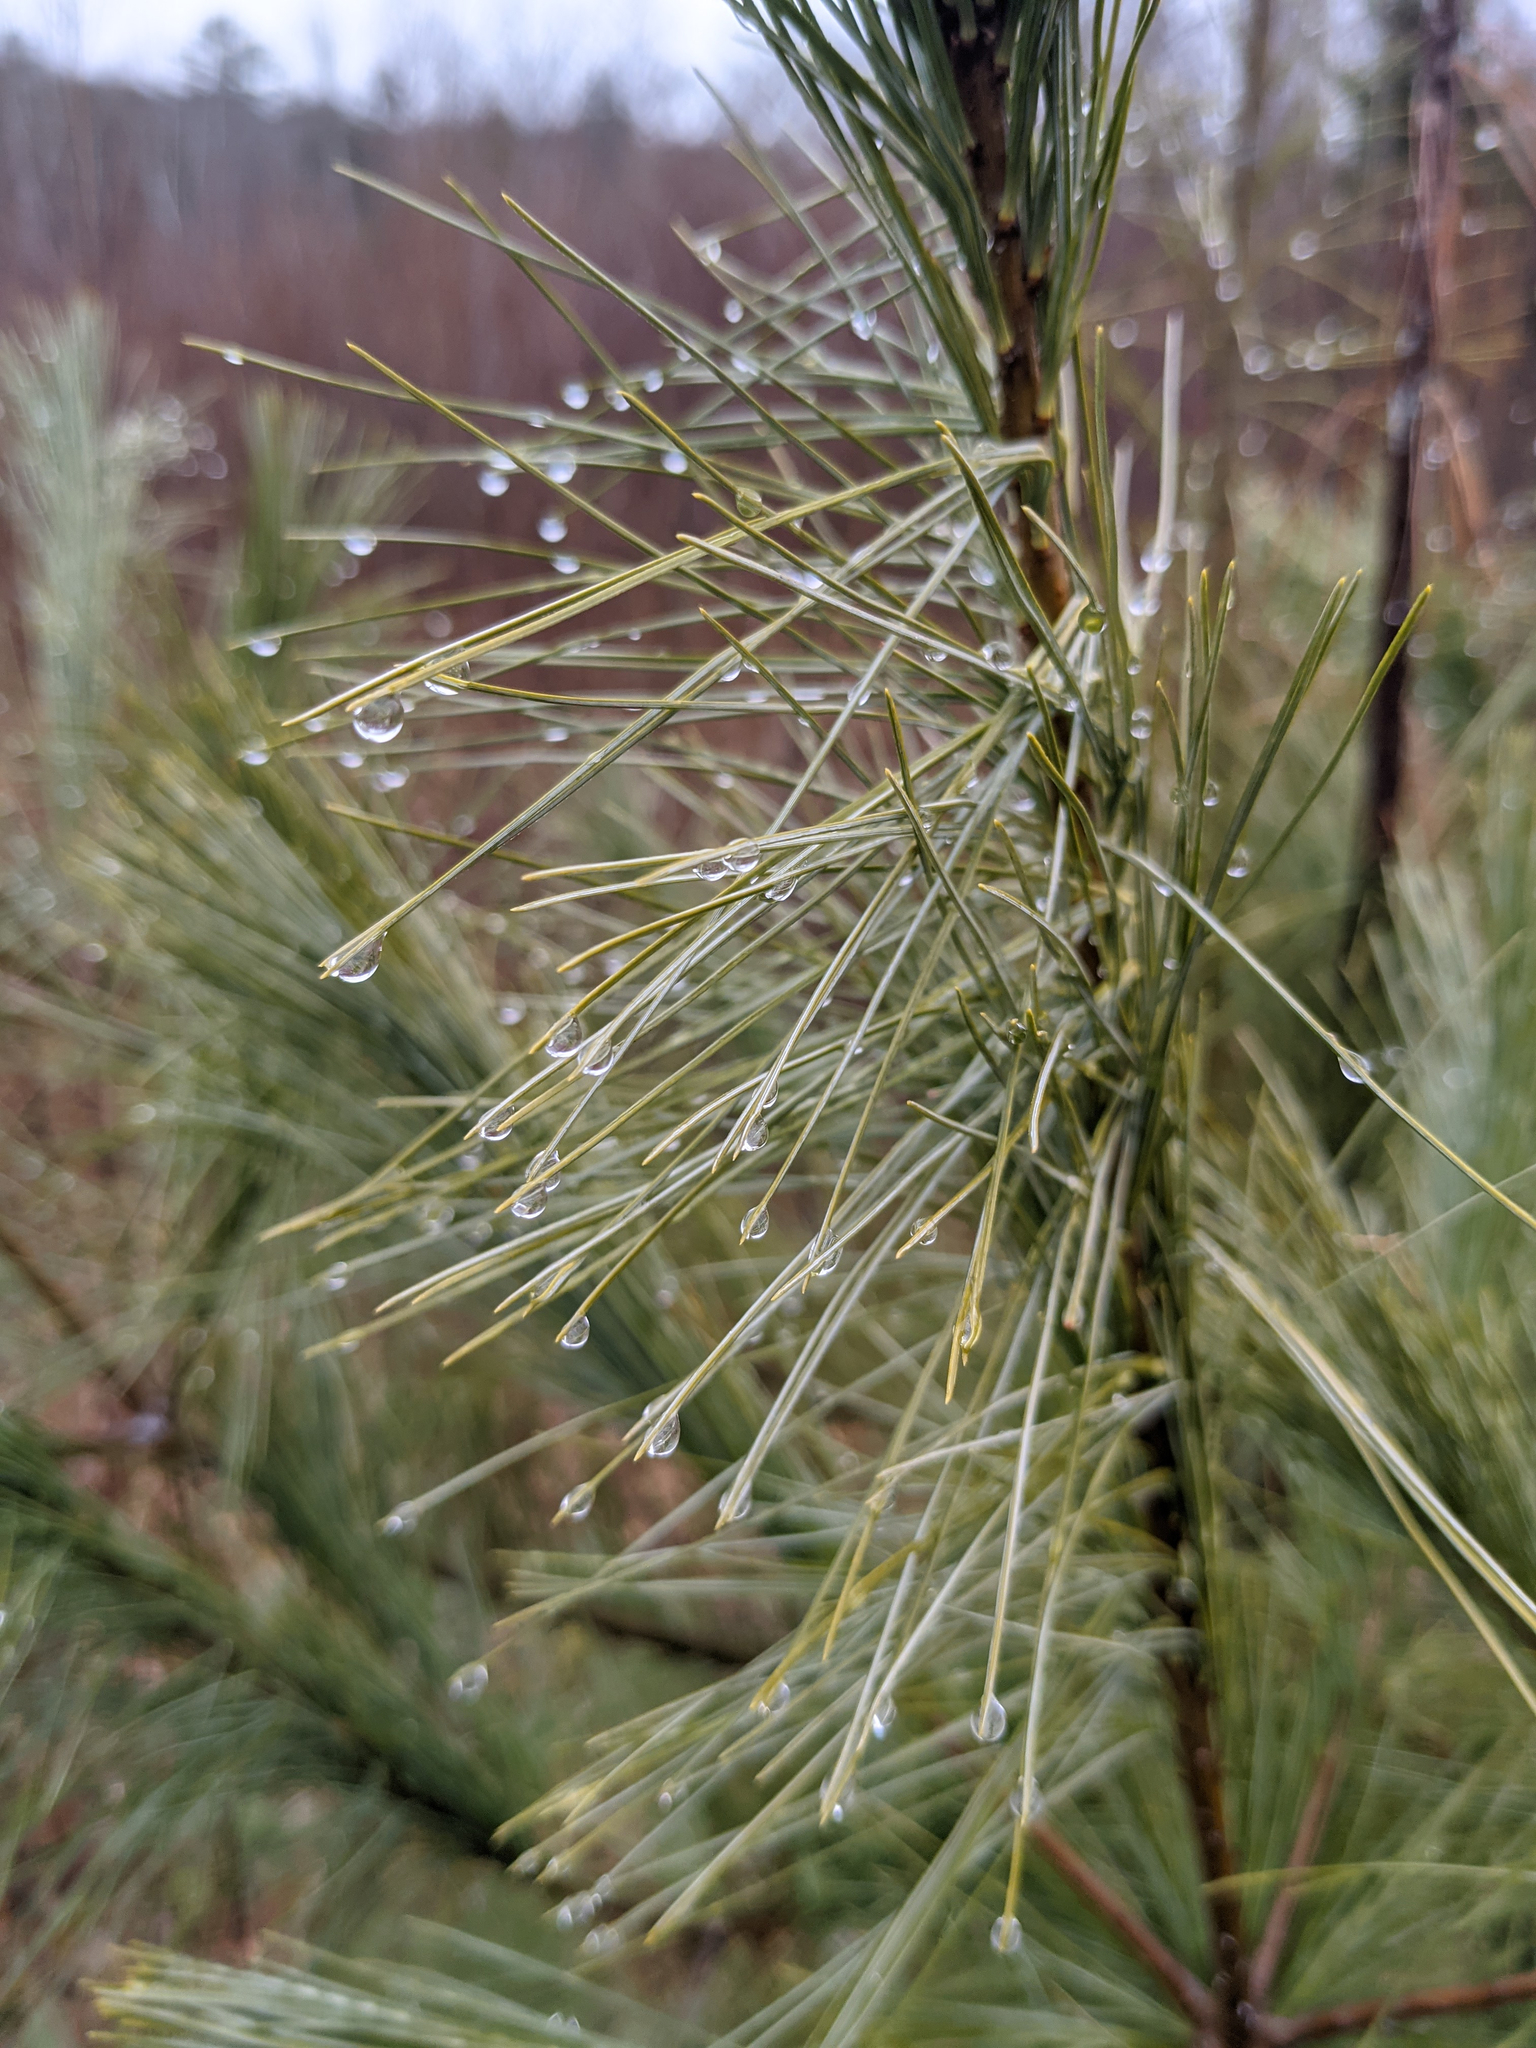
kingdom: Plantae
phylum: Tracheophyta
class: Pinopsida
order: Pinales
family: Pinaceae
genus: Pinus
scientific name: Pinus strobus
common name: Weymouth pine
